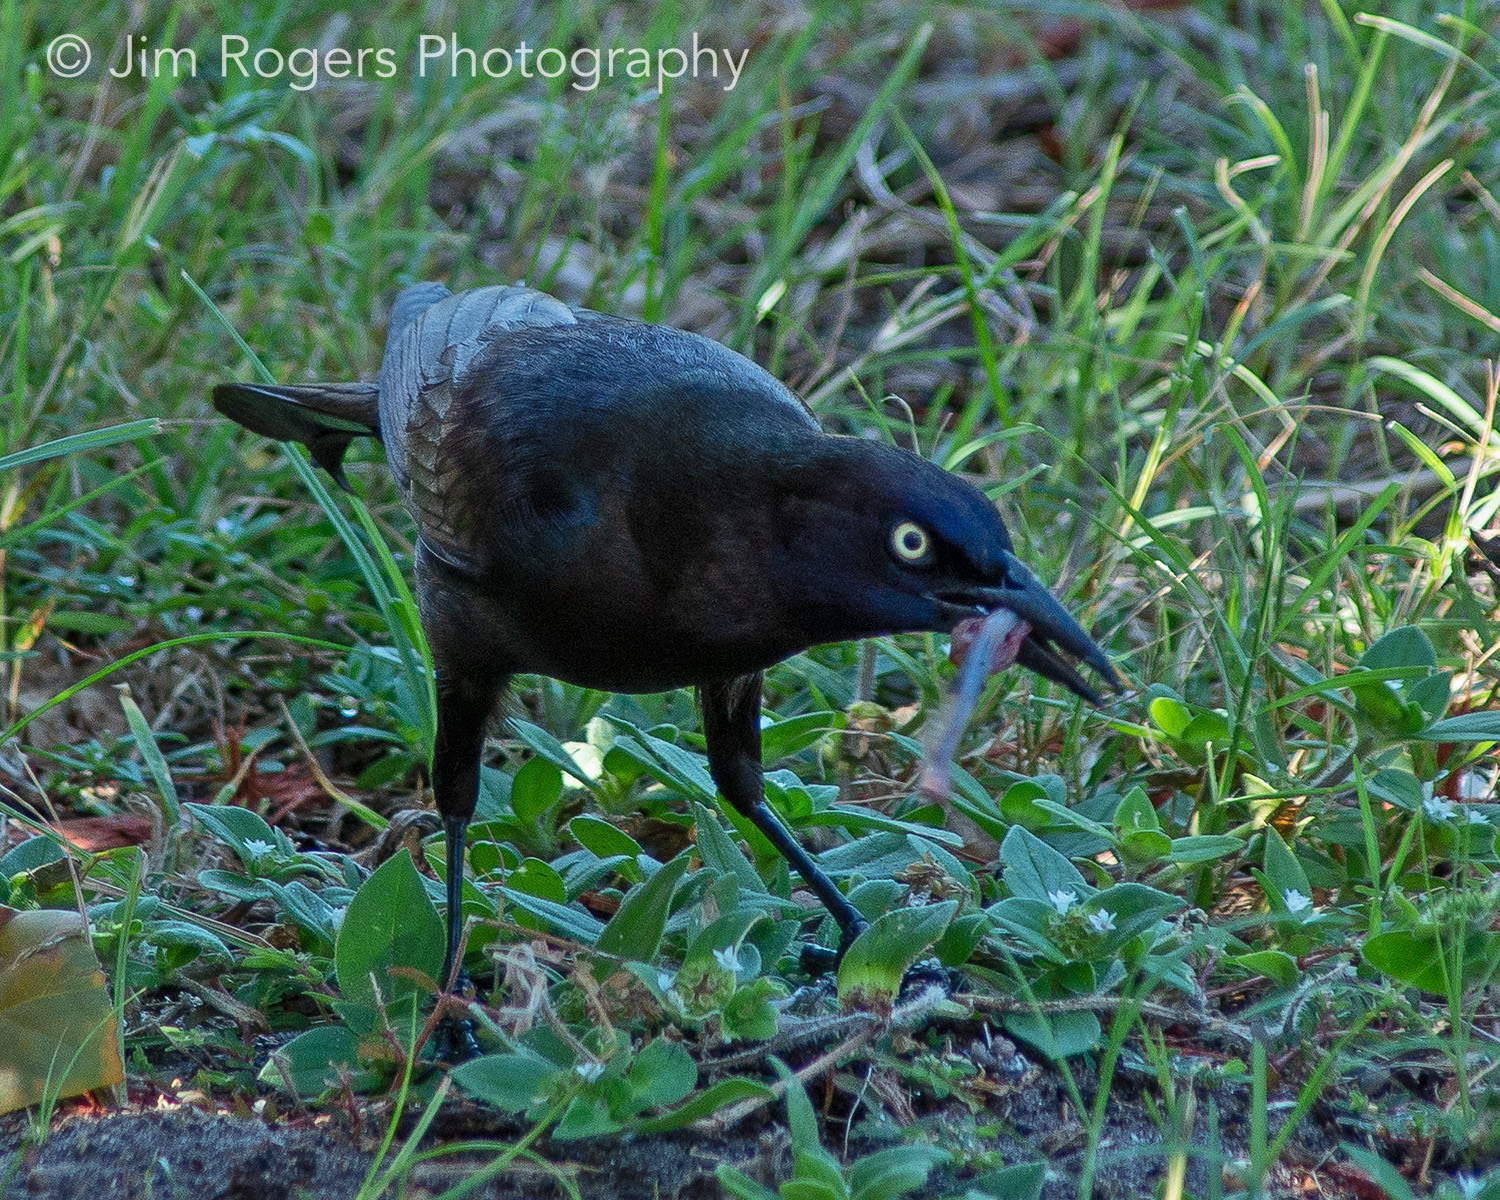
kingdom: Animalia
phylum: Chordata
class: Aves
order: Passeriformes
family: Icteridae
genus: Quiscalus
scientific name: Quiscalus quiscula
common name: Common grackle
